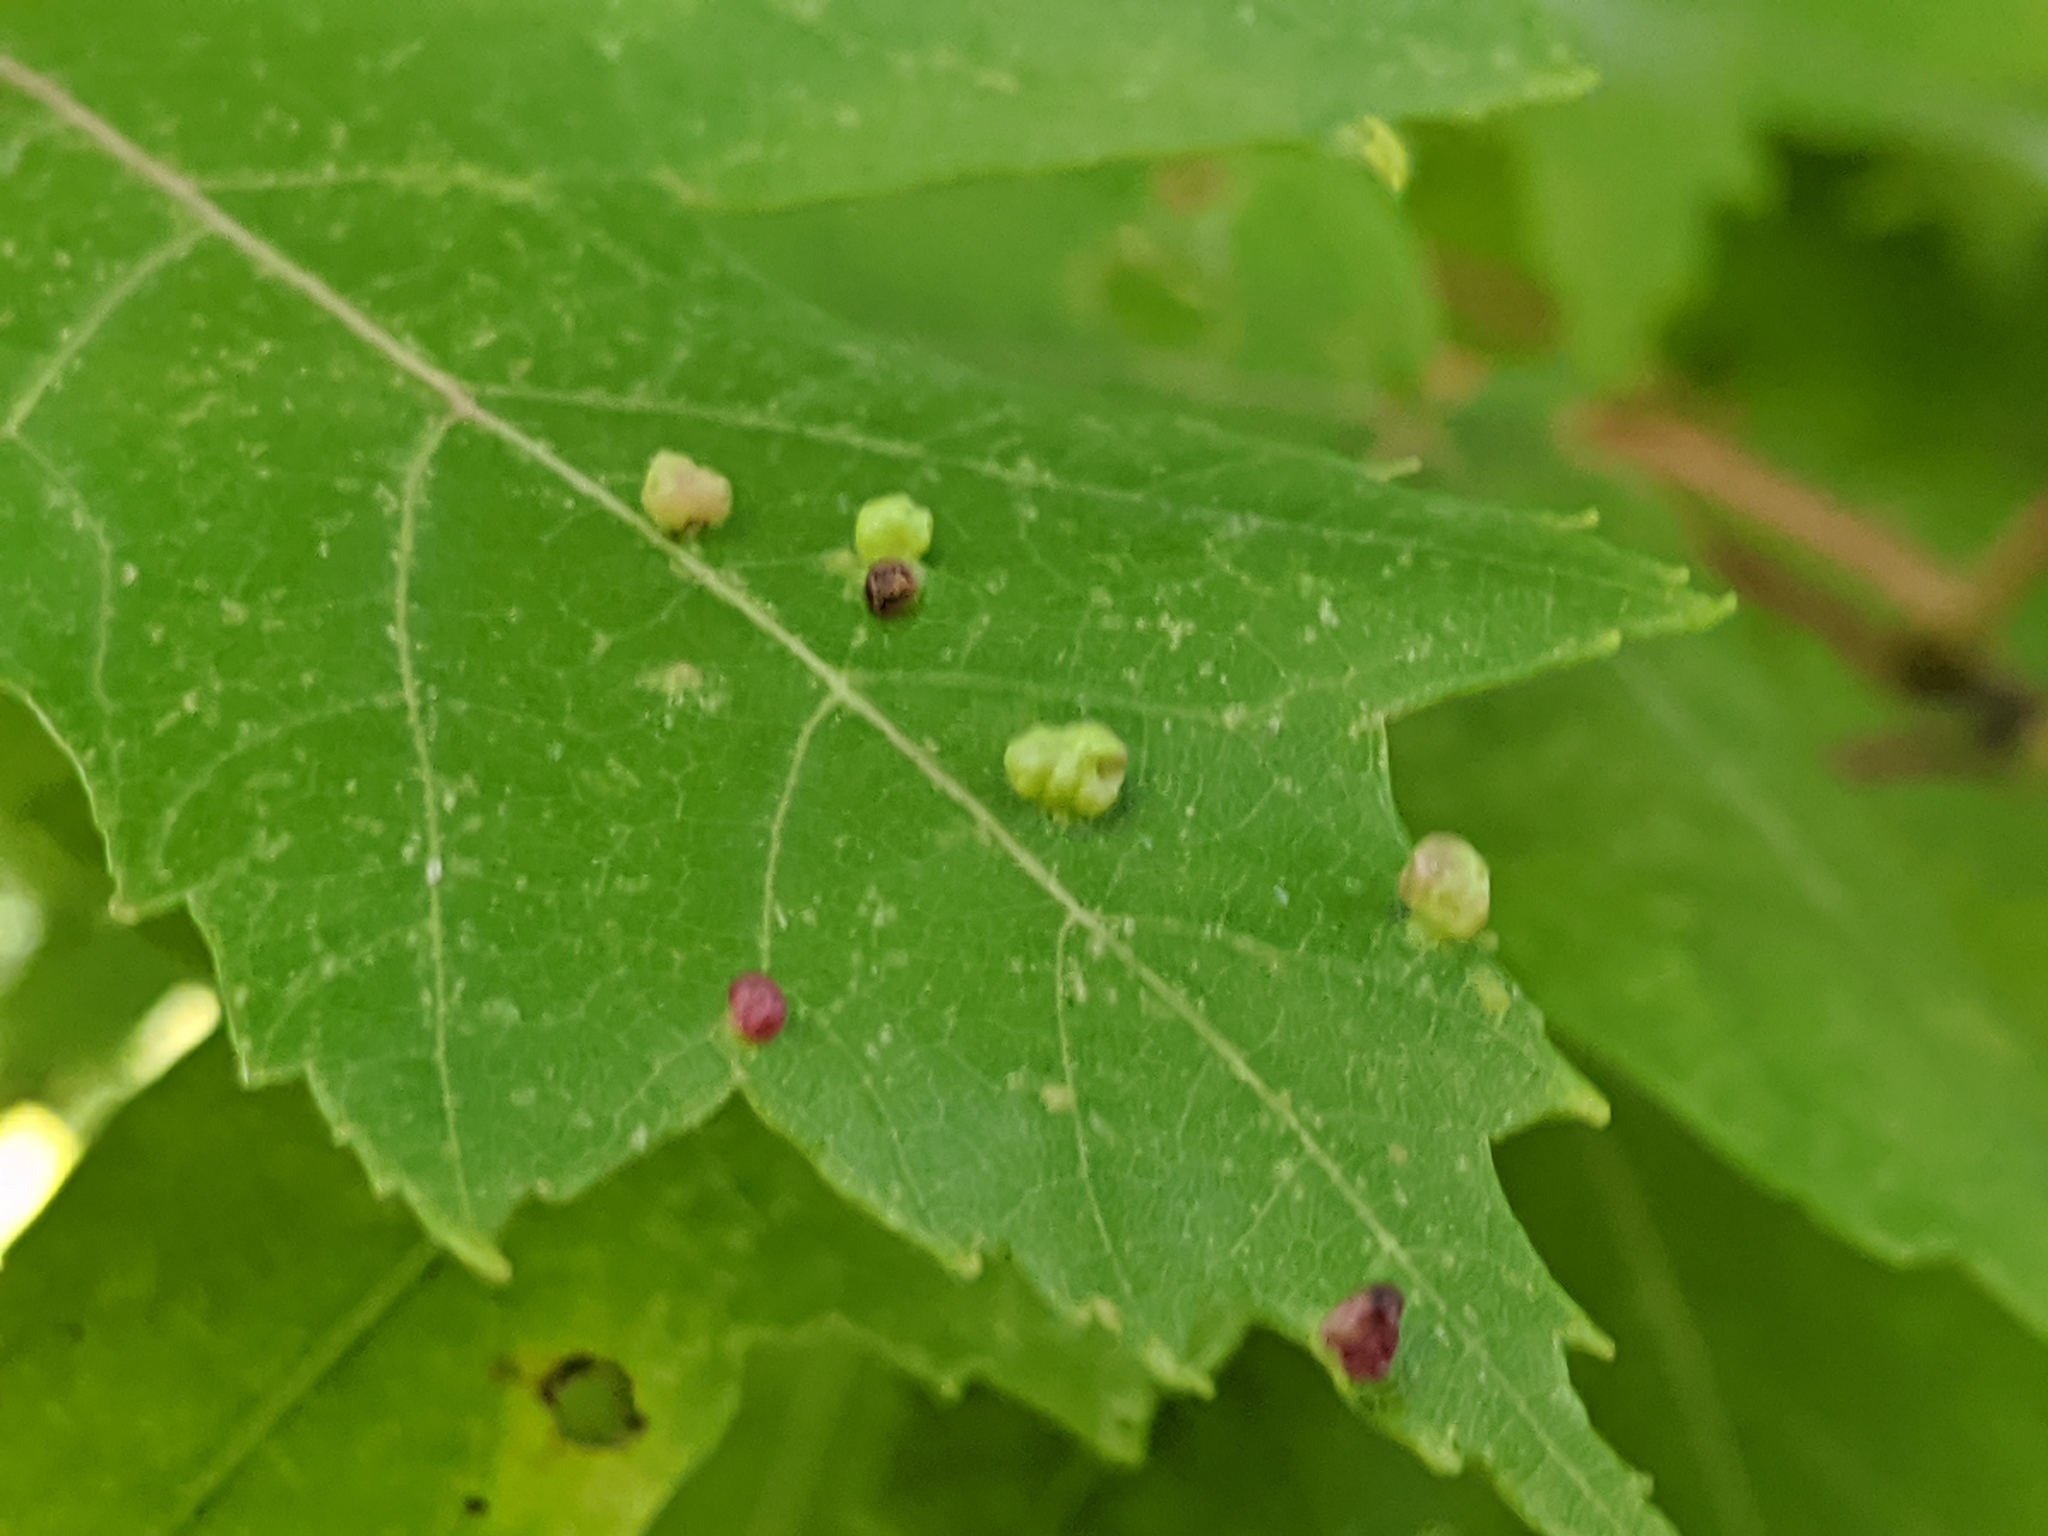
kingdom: Animalia
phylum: Arthropoda
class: Arachnida
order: Trombidiformes
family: Eriophyidae
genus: Vasates
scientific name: Vasates quadripedes
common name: Maple bladder gall mite
